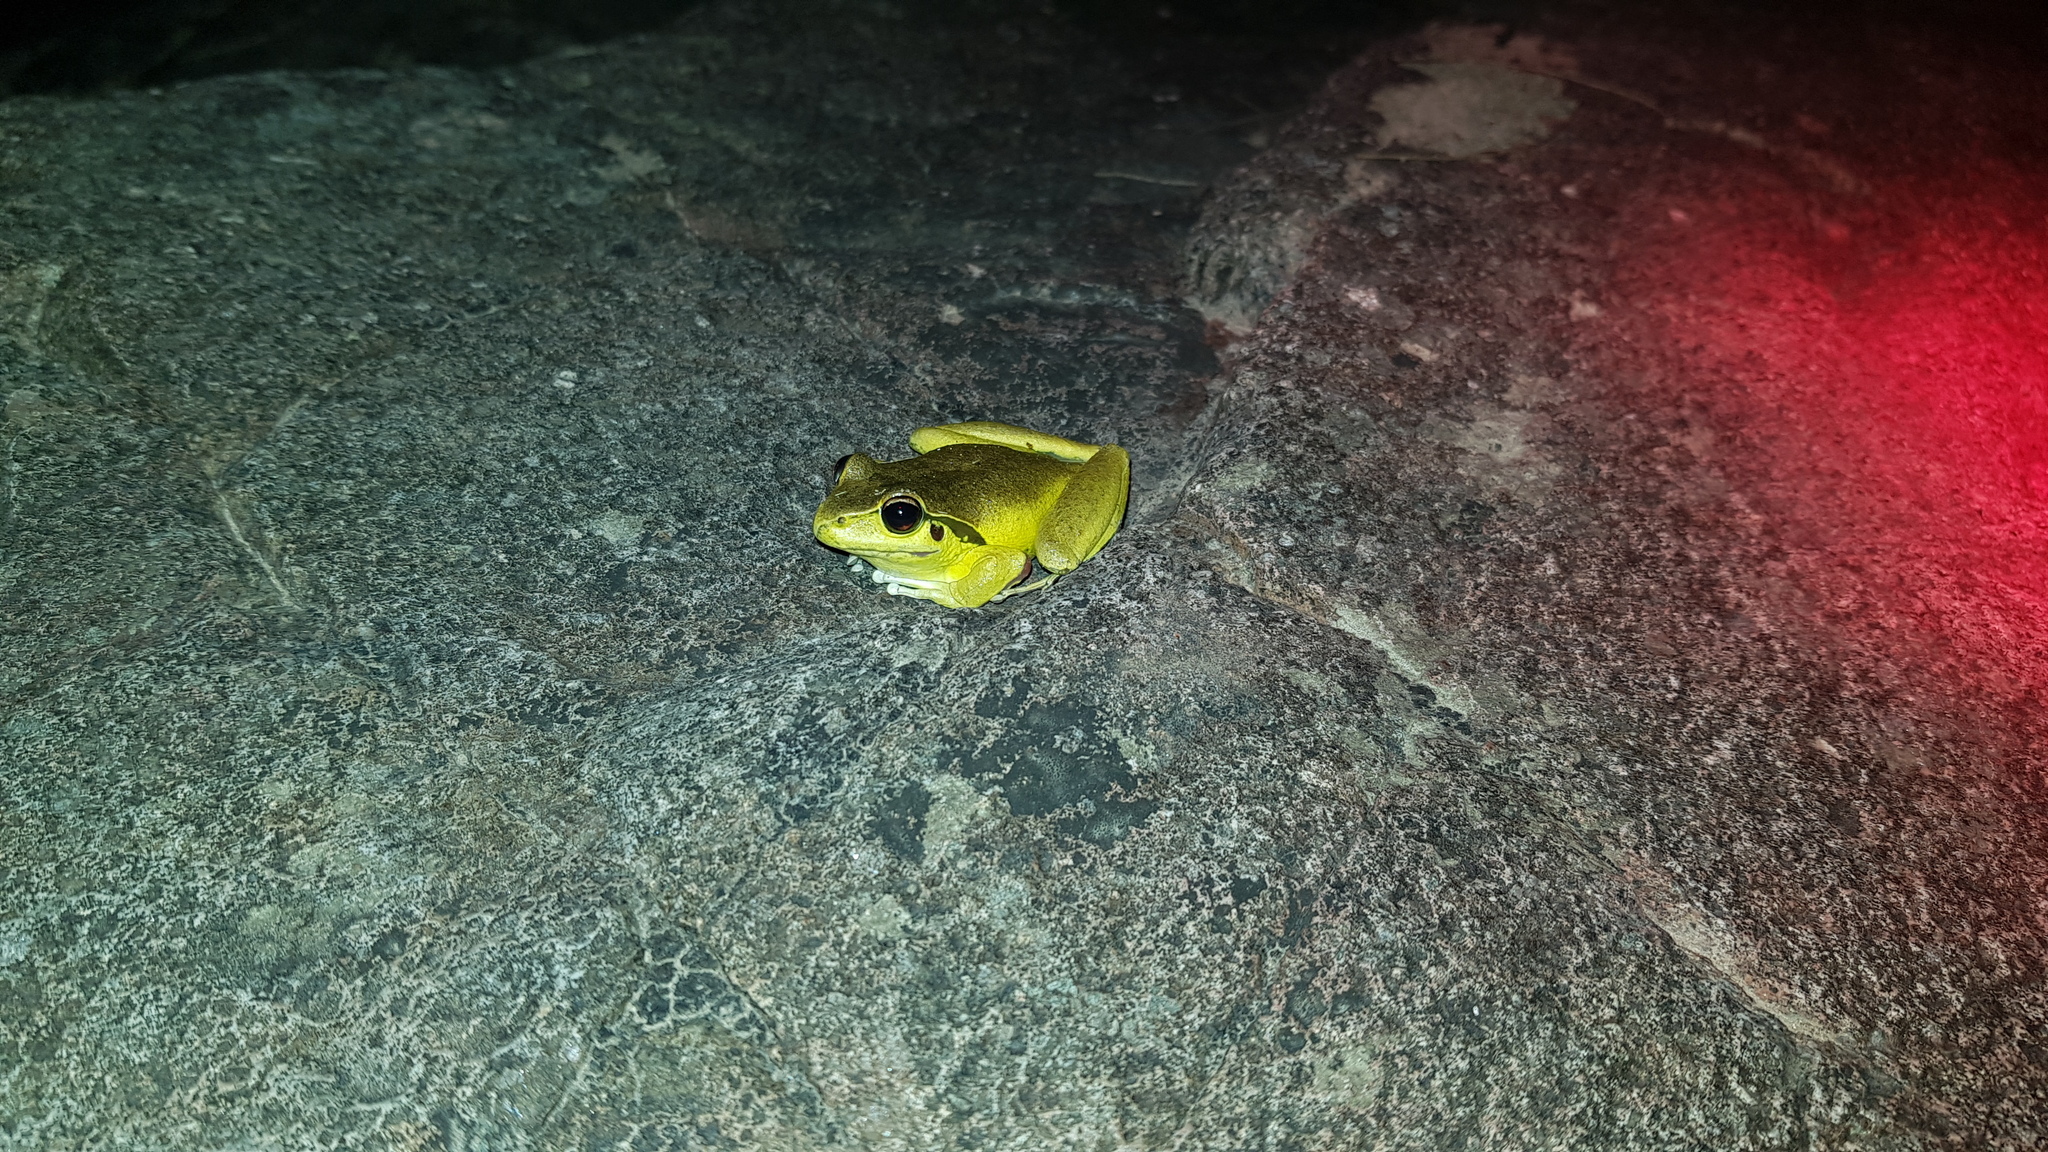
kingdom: Animalia
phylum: Chordata
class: Amphibia
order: Anura
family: Pelodryadidae
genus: Ranoidea
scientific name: Ranoidea lesueurii
